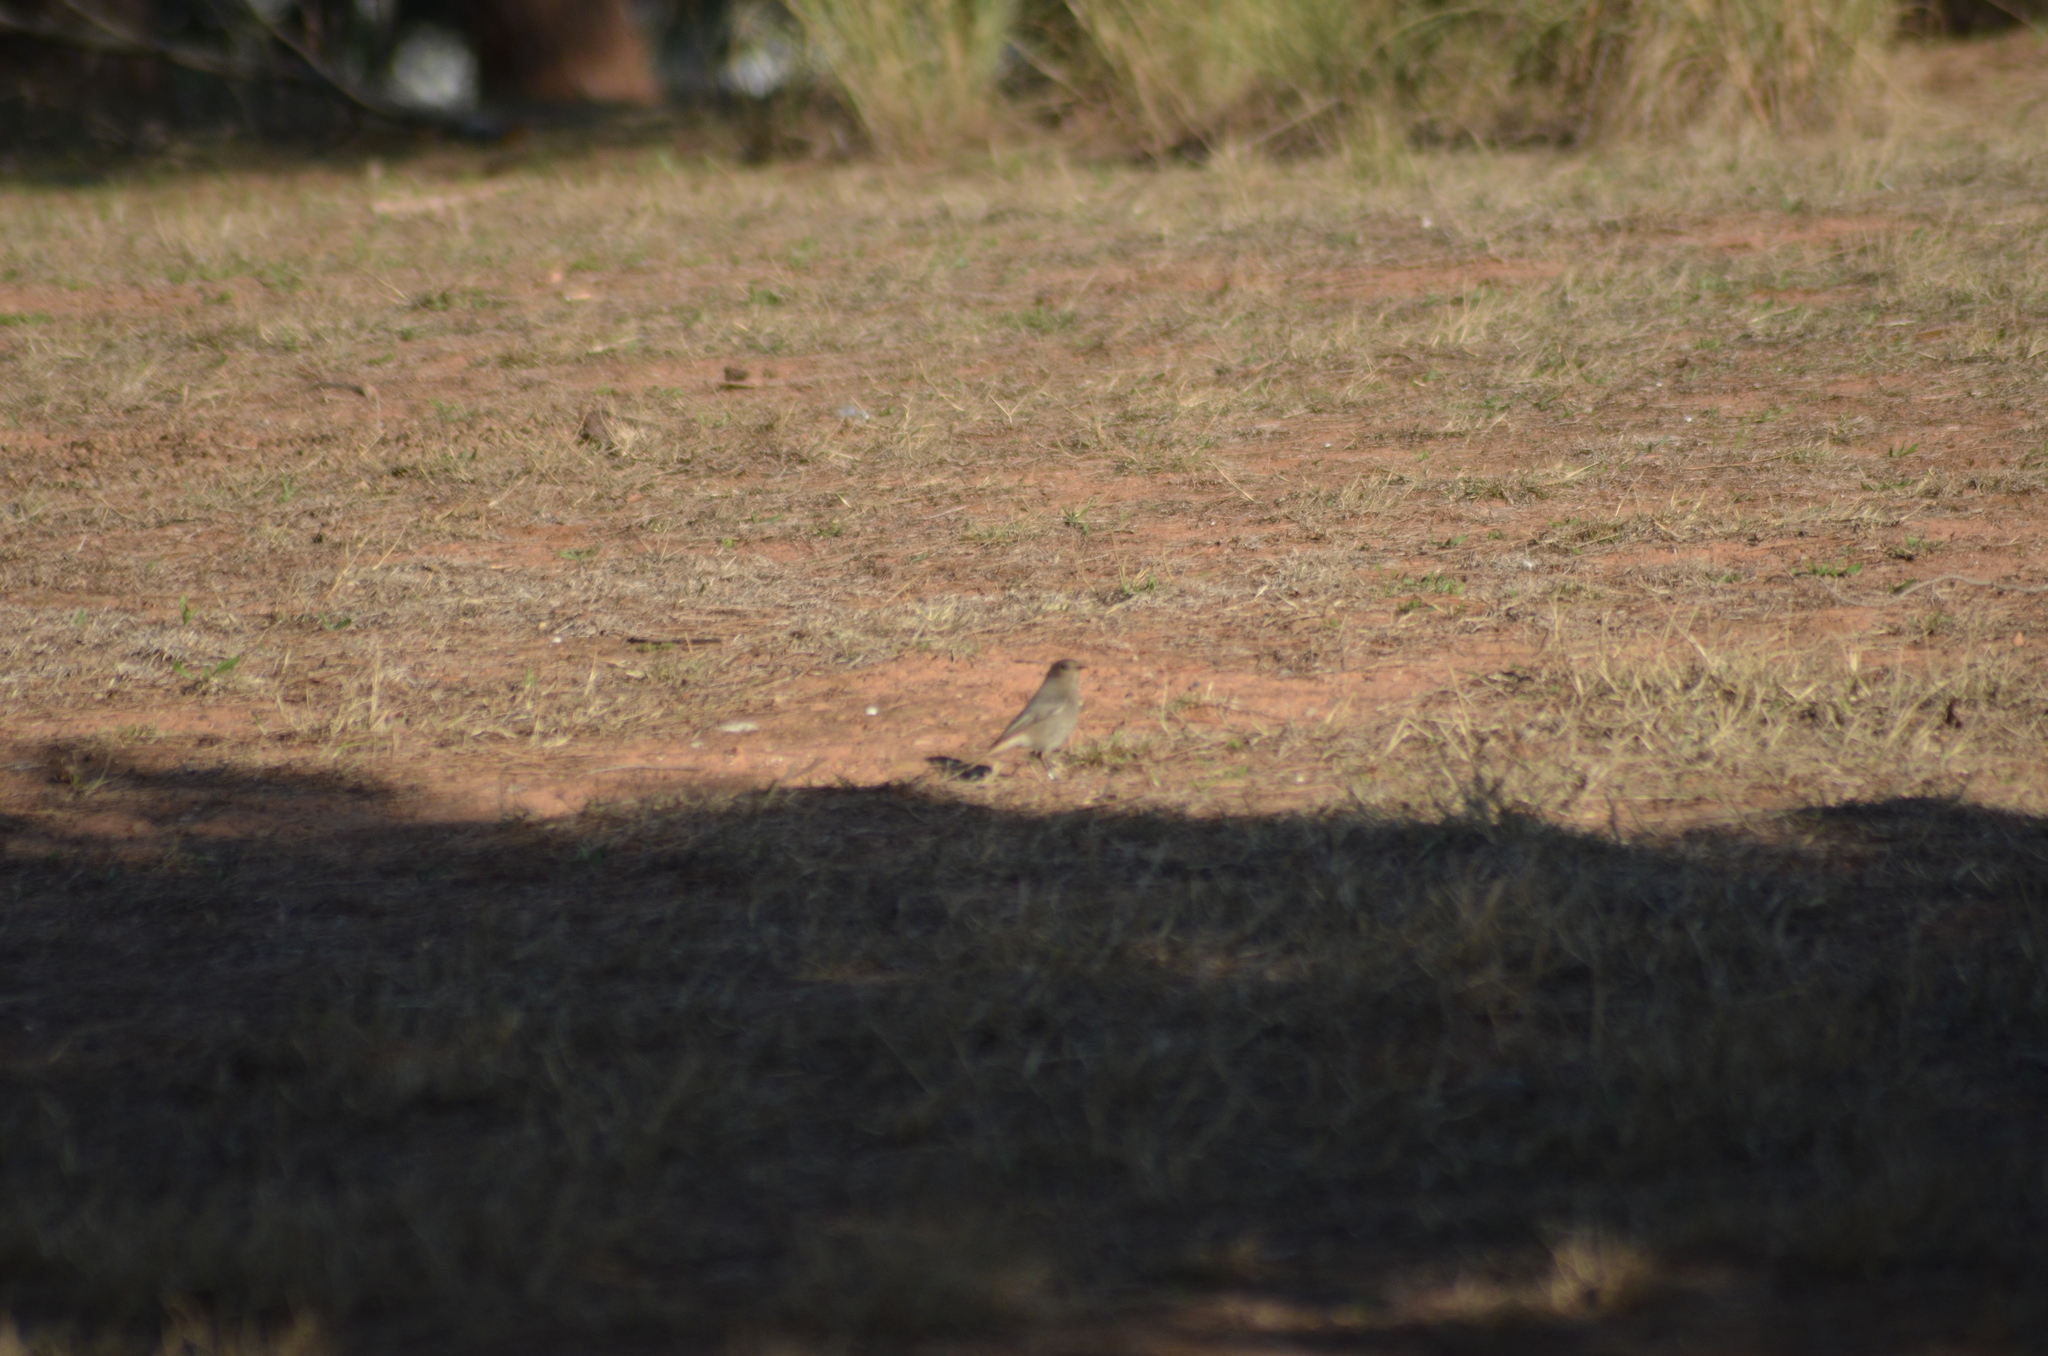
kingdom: Animalia
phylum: Chordata
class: Aves
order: Passeriformes
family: Muscicapidae
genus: Phoenicurus
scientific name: Phoenicurus ochruros
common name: Black redstart
